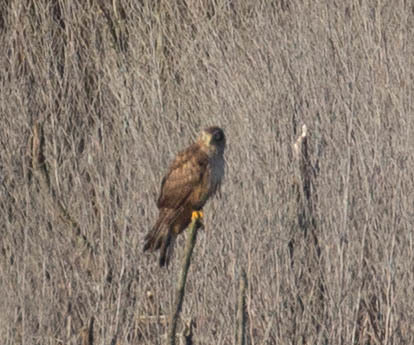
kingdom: Animalia
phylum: Chordata
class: Aves
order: Accipitriformes
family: Accipitridae
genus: Circus
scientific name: Circus cyaneus
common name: Hen harrier
